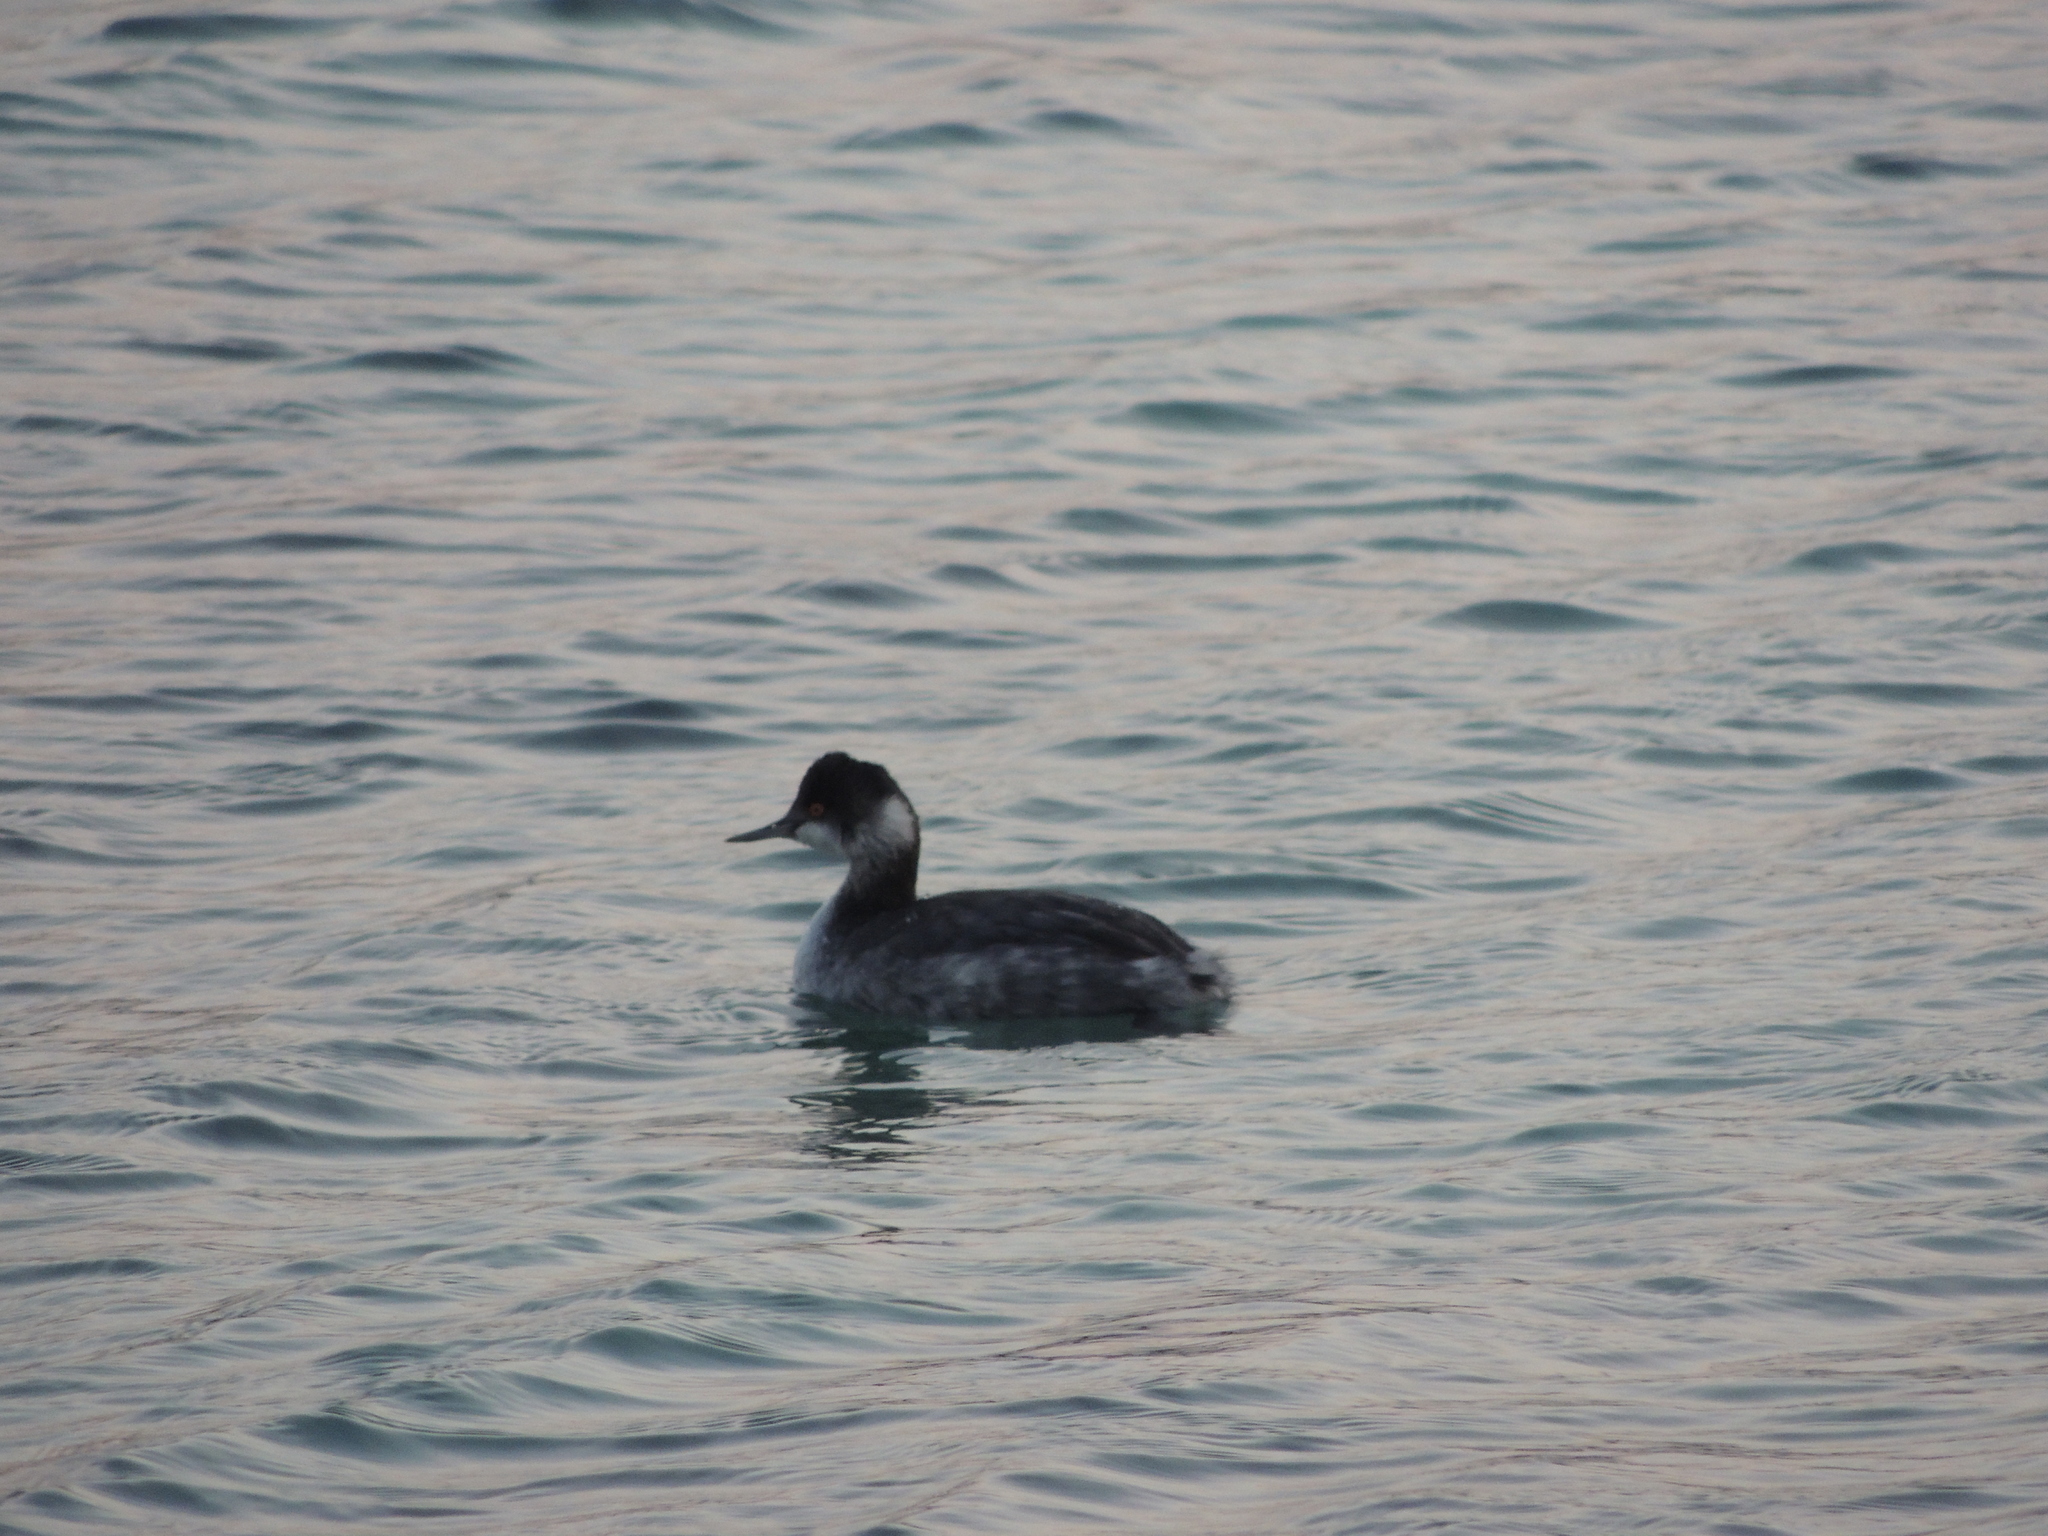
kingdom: Animalia
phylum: Chordata
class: Aves
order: Podicipediformes
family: Podicipedidae
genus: Podiceps
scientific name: Podiceps nigricollis
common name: Black-necked grebe
